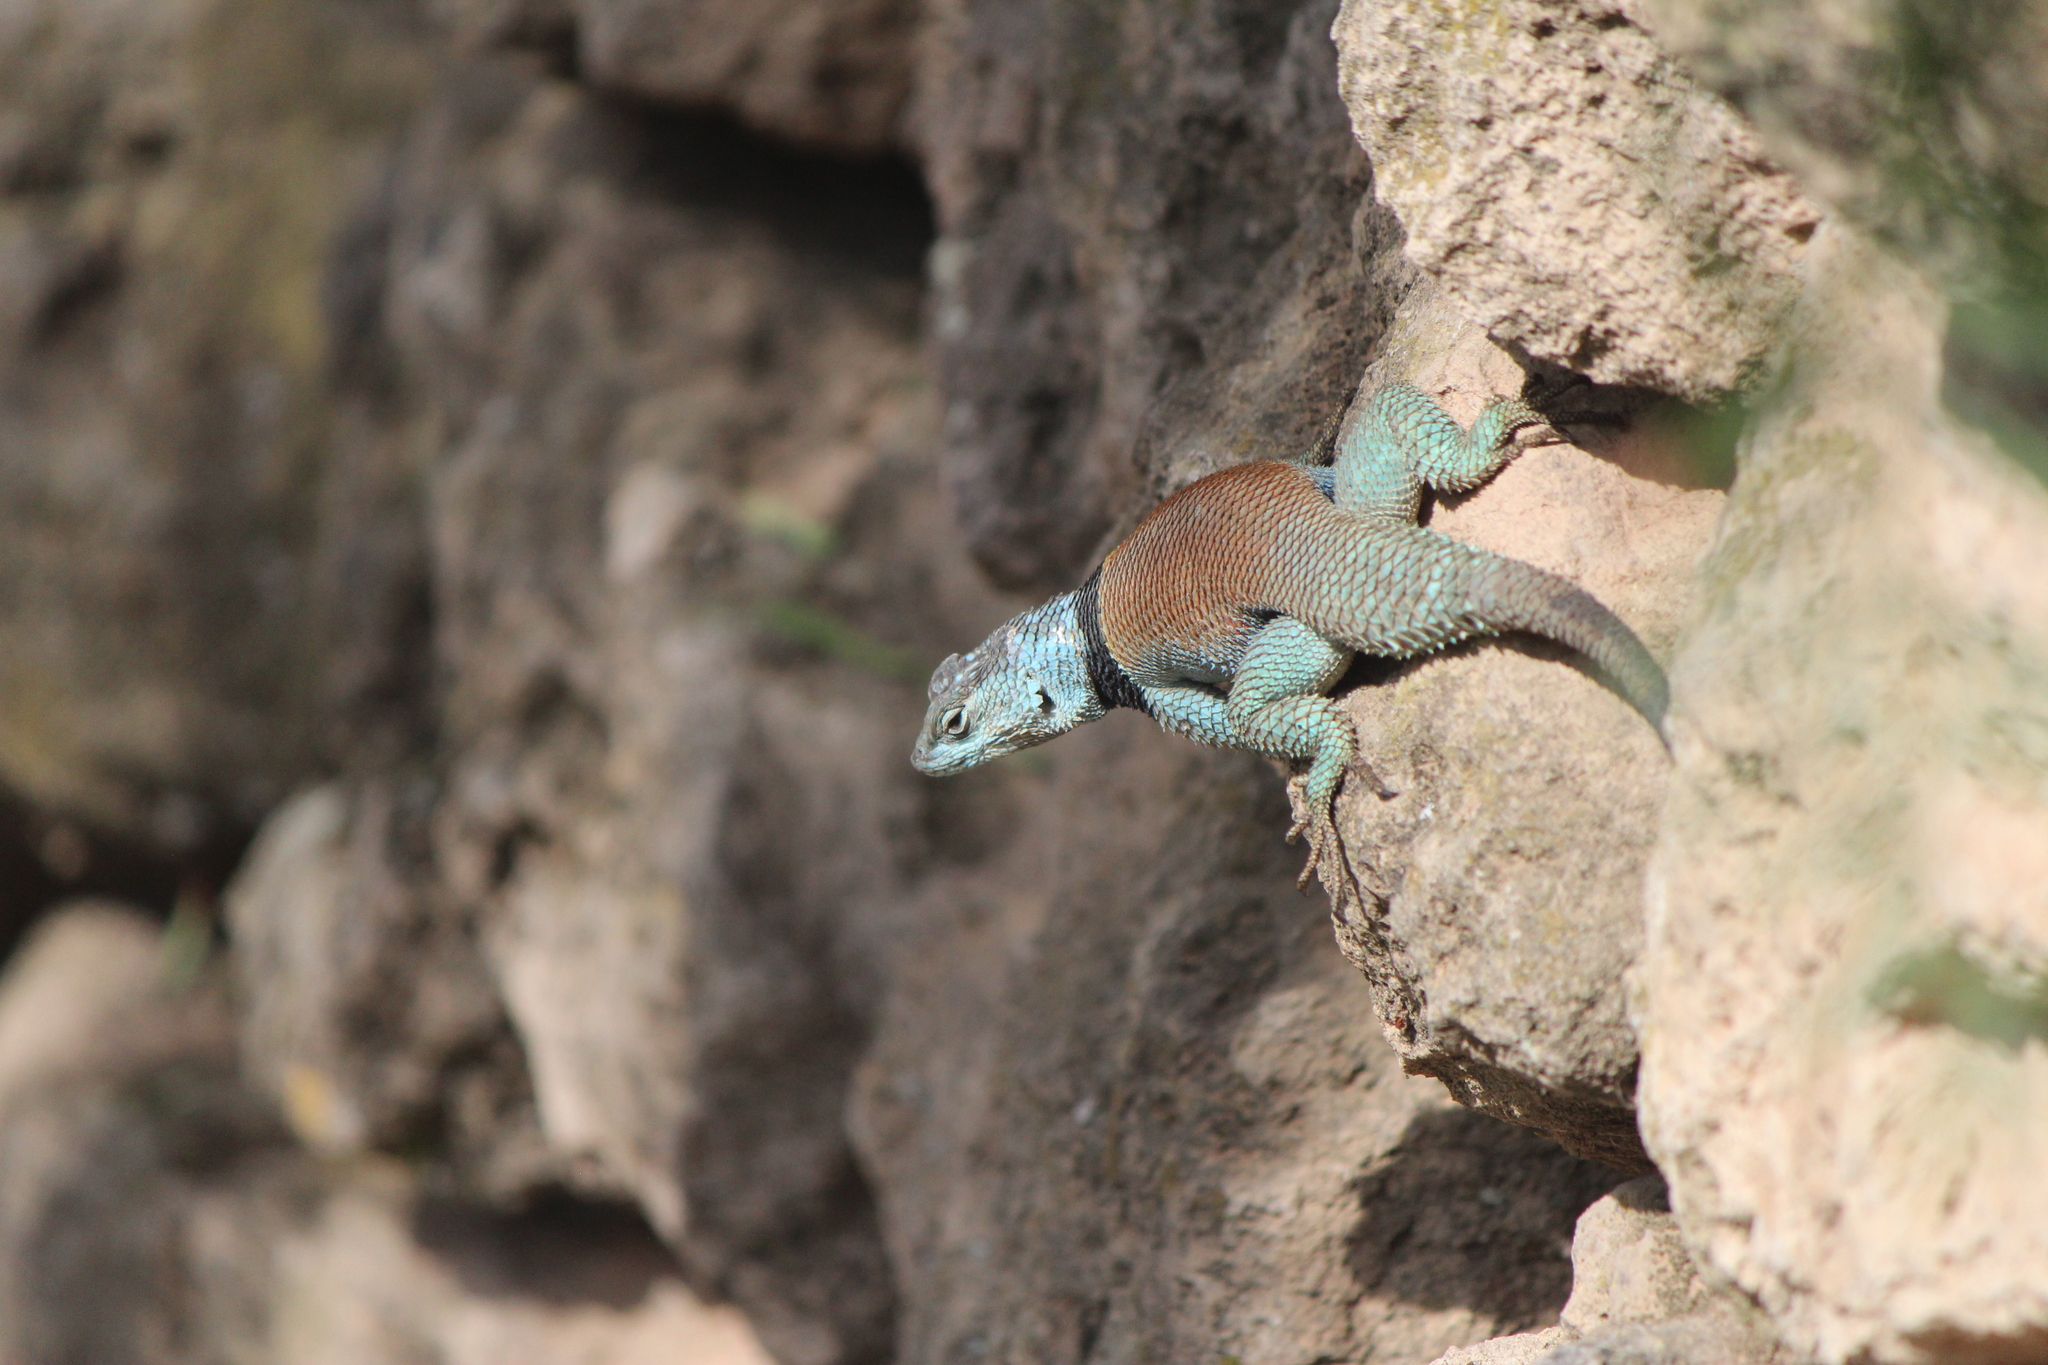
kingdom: Animalia
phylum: Chordata
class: Squamata
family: Phrynosomatidae
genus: Sceloporus
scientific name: Sceloporus minor
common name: Minor lizard
